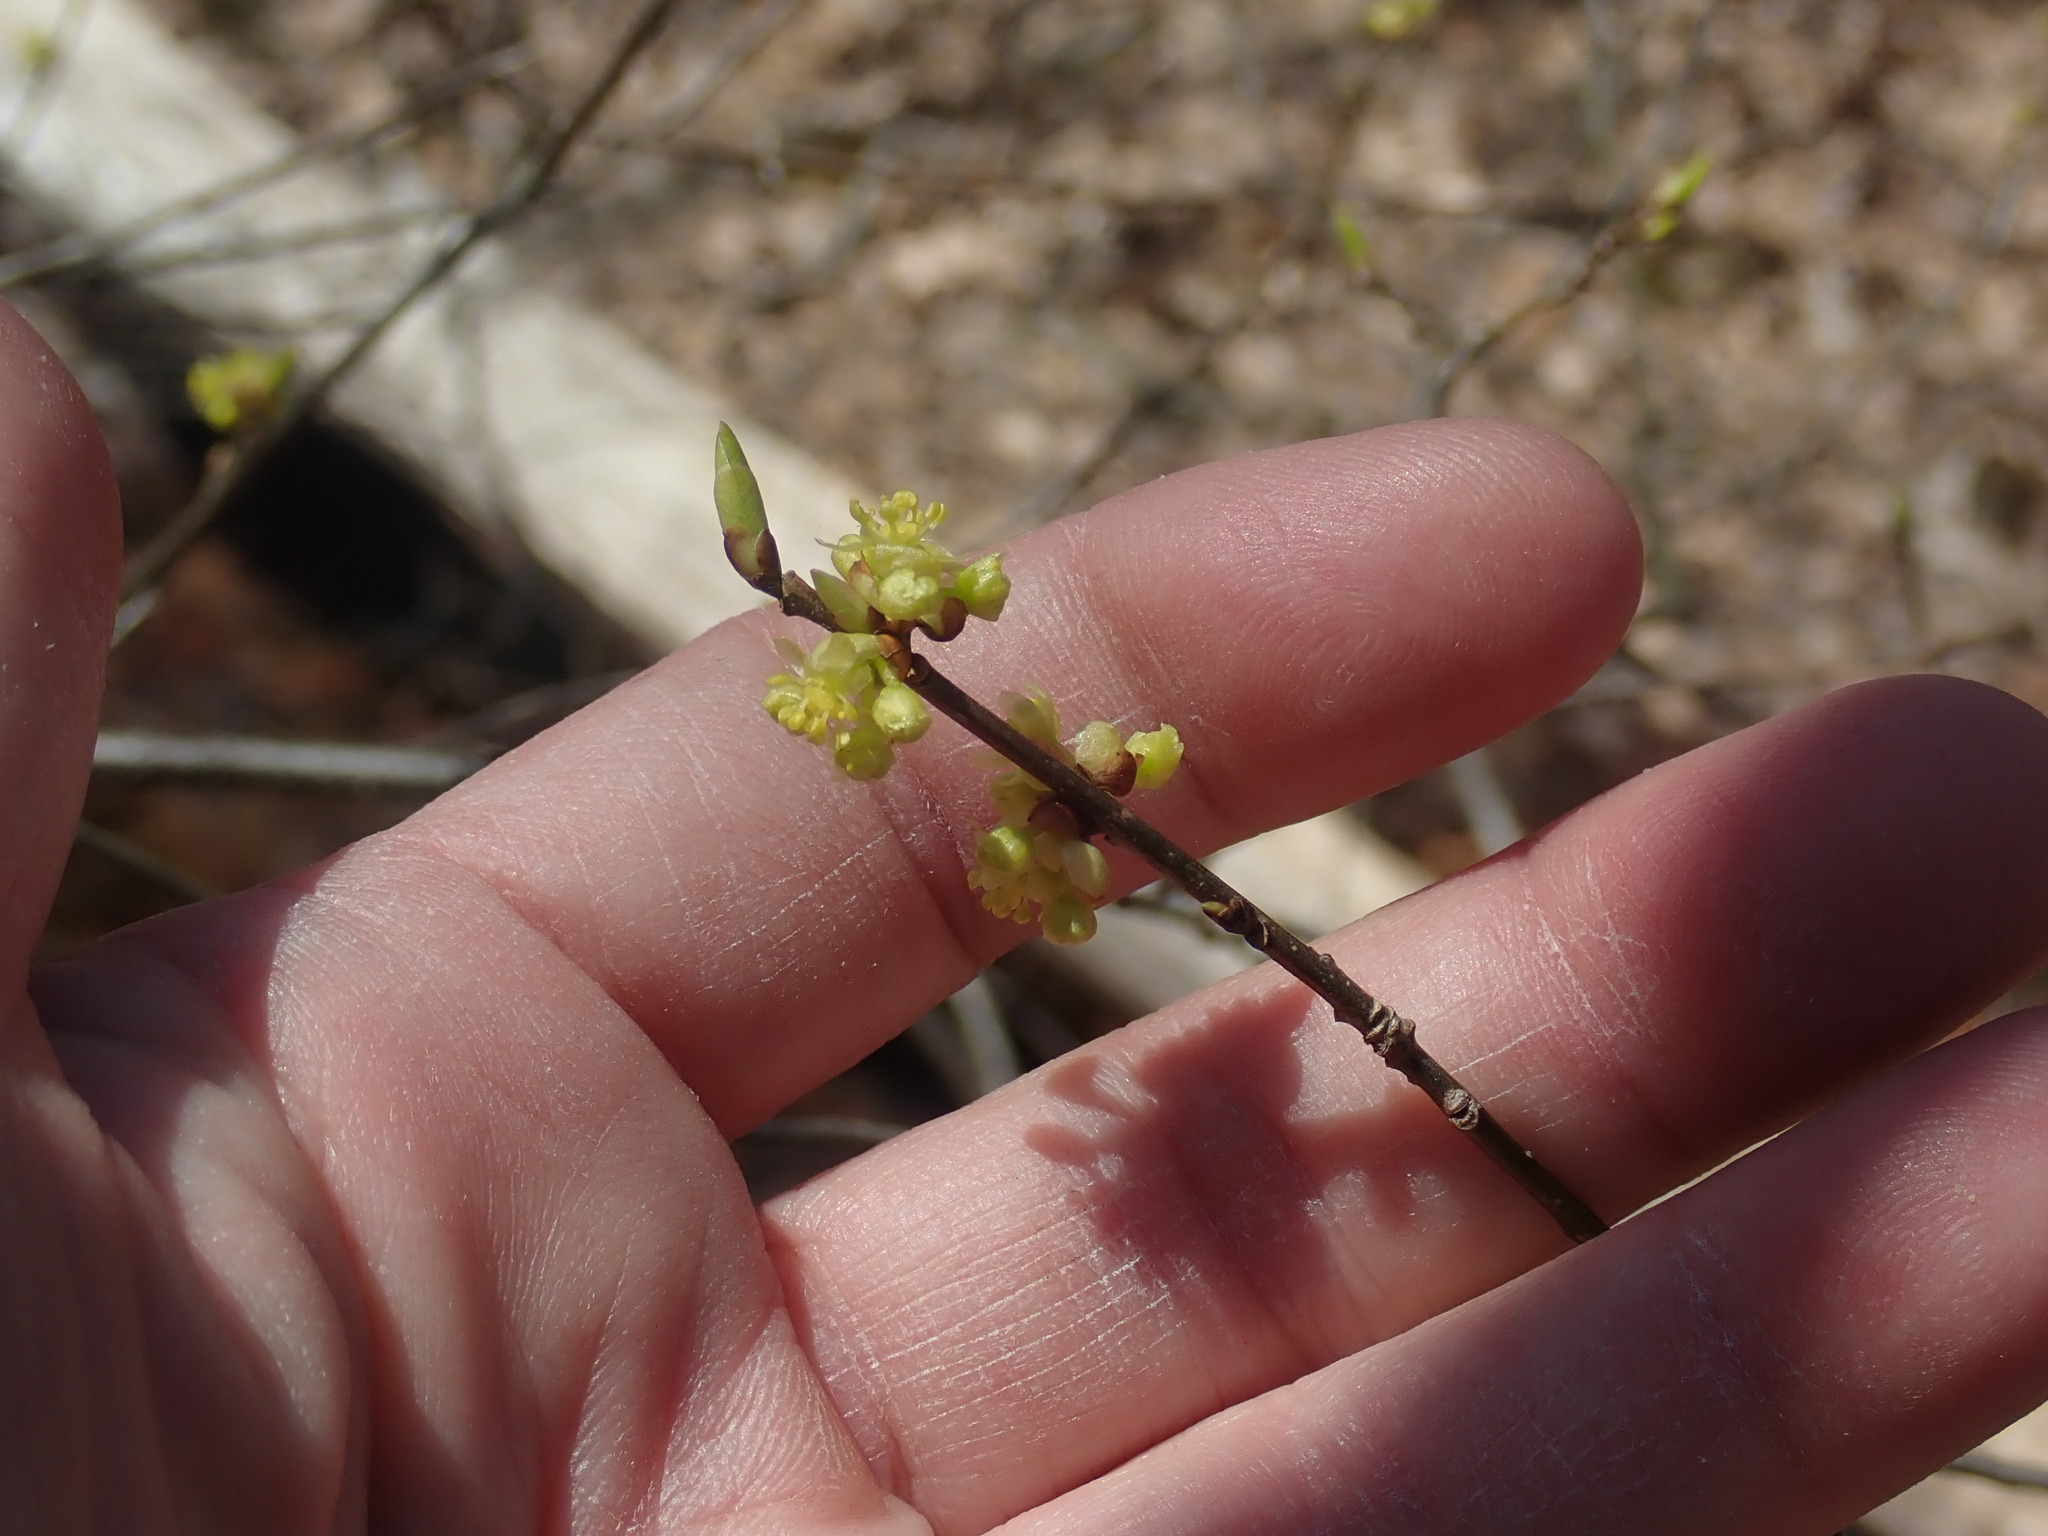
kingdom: Plantae
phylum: Tracheophyta
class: Magnoliopsida
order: Laurales
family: Lauraceae
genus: Lindera
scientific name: Lindera benzoin
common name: Spicebush
